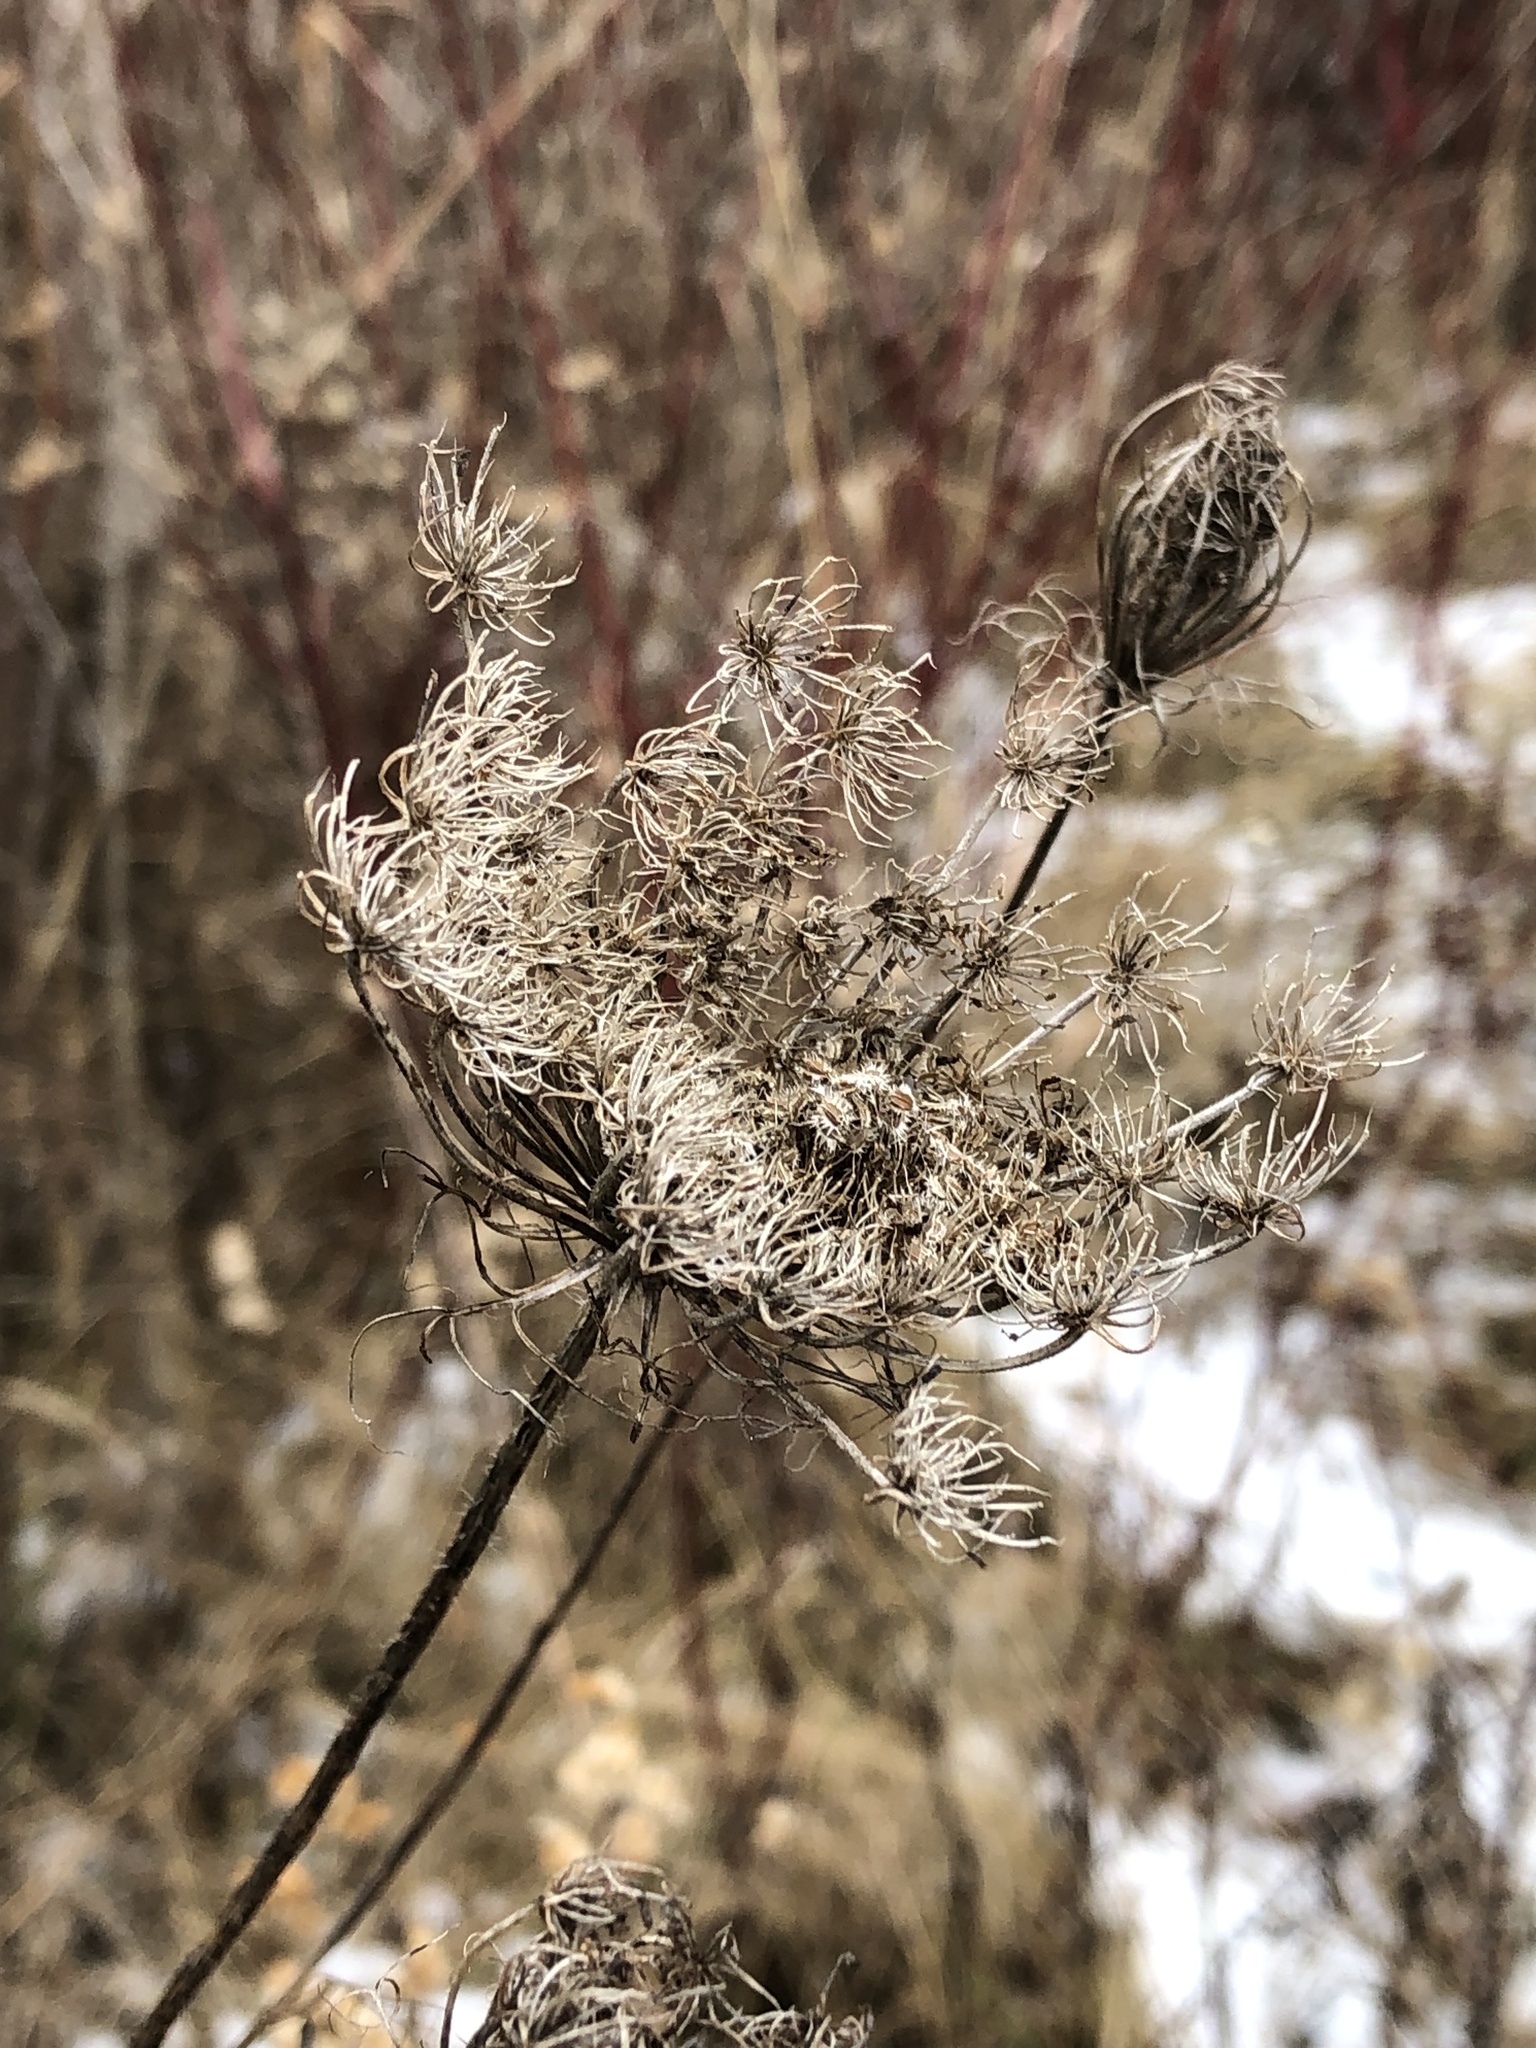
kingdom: Plantae
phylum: Tracheophyta
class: Magnoliopsida
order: Apiales
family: Apiaceae
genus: Daucus
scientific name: Daucus carota
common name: Wild carrot
